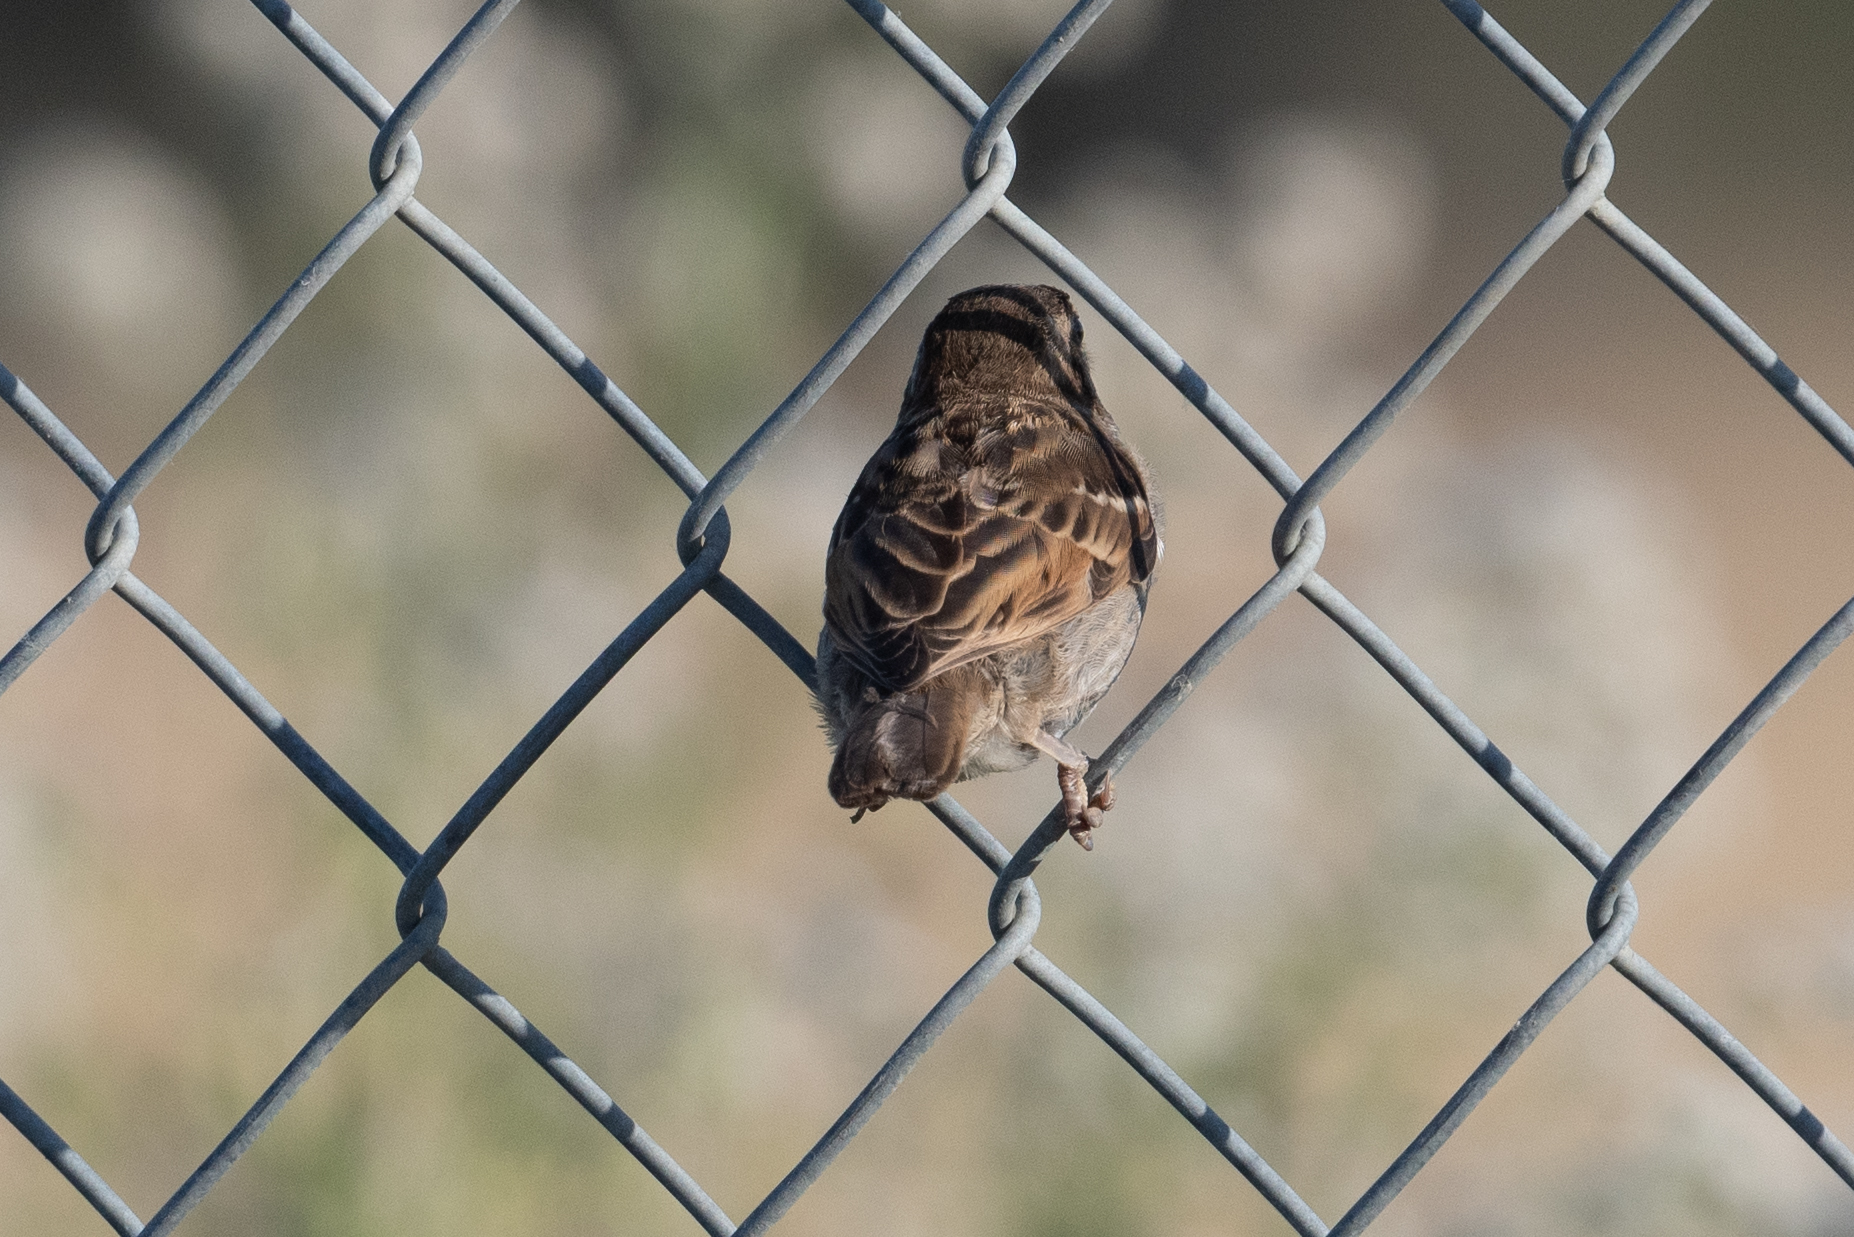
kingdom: Animalia
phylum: Chordata
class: Aves
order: Passeriformes
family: Passeridae
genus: Passer
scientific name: Passer domesticus
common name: House sparrow
